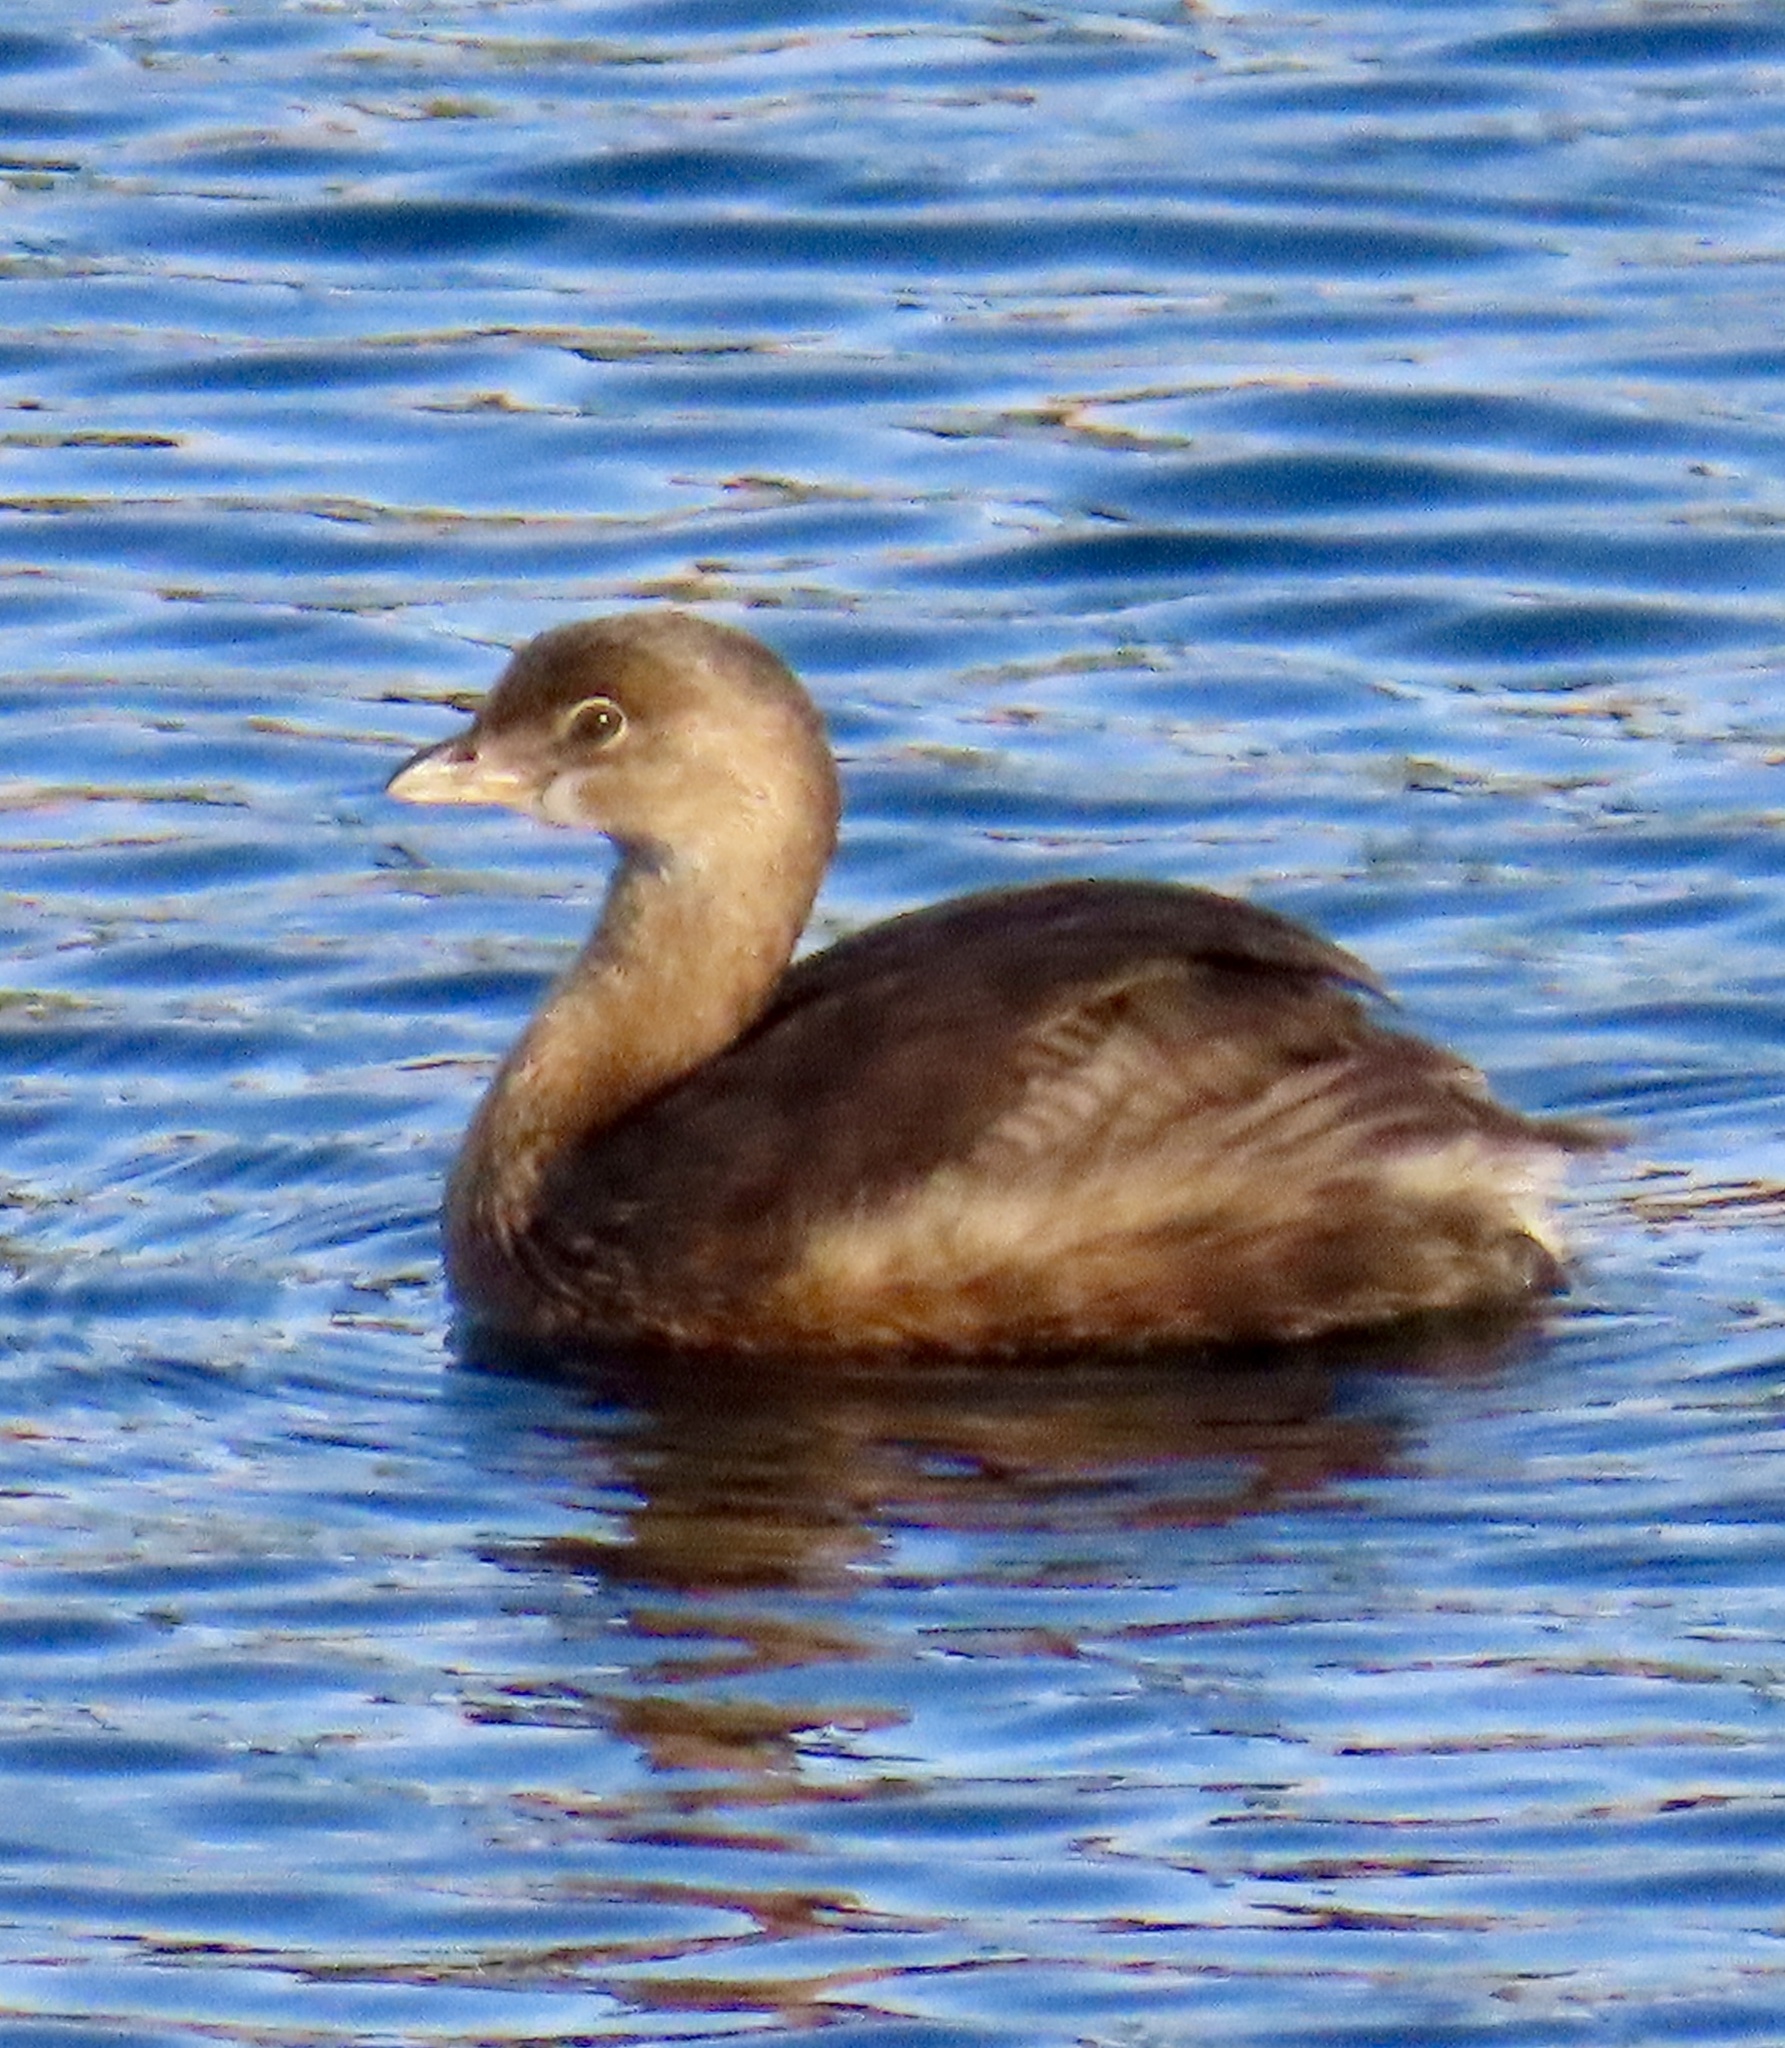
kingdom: Animalia
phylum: Chordata
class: Aves
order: Podicipediformes
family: Podicipedidae
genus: Podilymbus
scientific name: Podilymbus podiceps
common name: Pied-billed grebe
